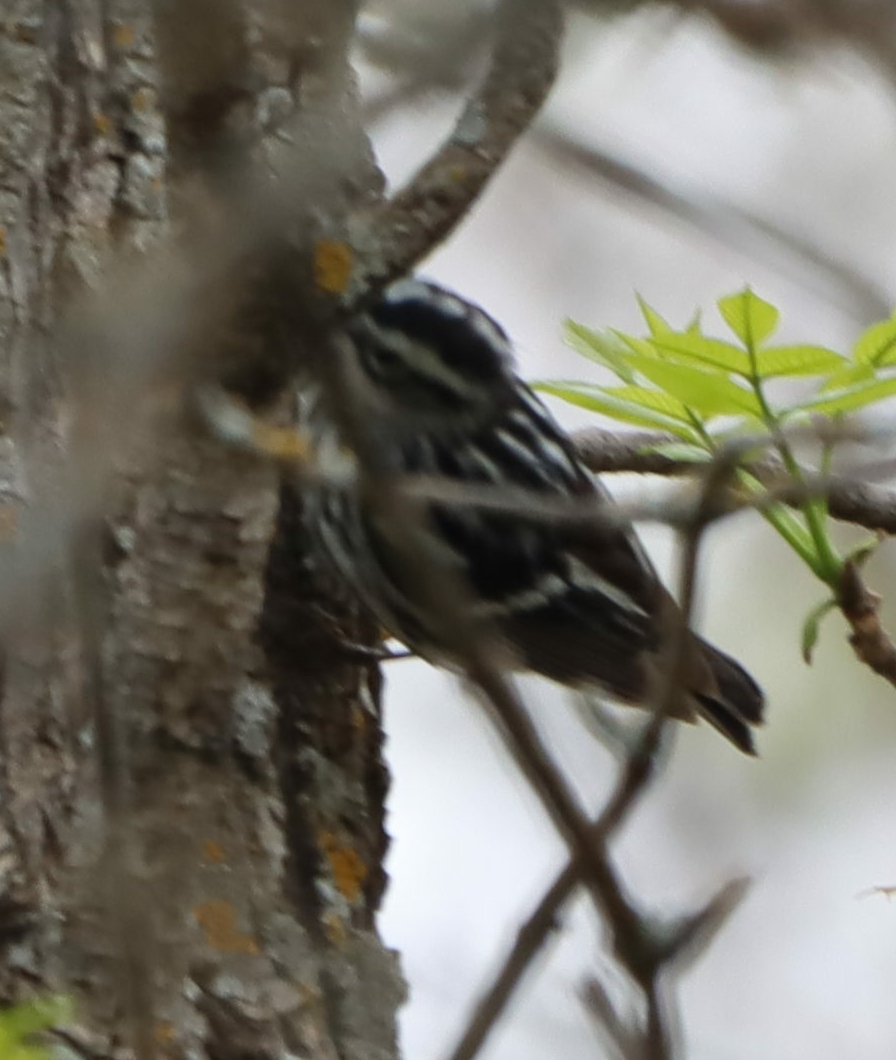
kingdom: Animalia
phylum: Chordata
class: Aves
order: Passeriformes
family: Parulidae
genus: Mniotilta
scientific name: Mniotilta varia
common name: Black-and-white warbler
